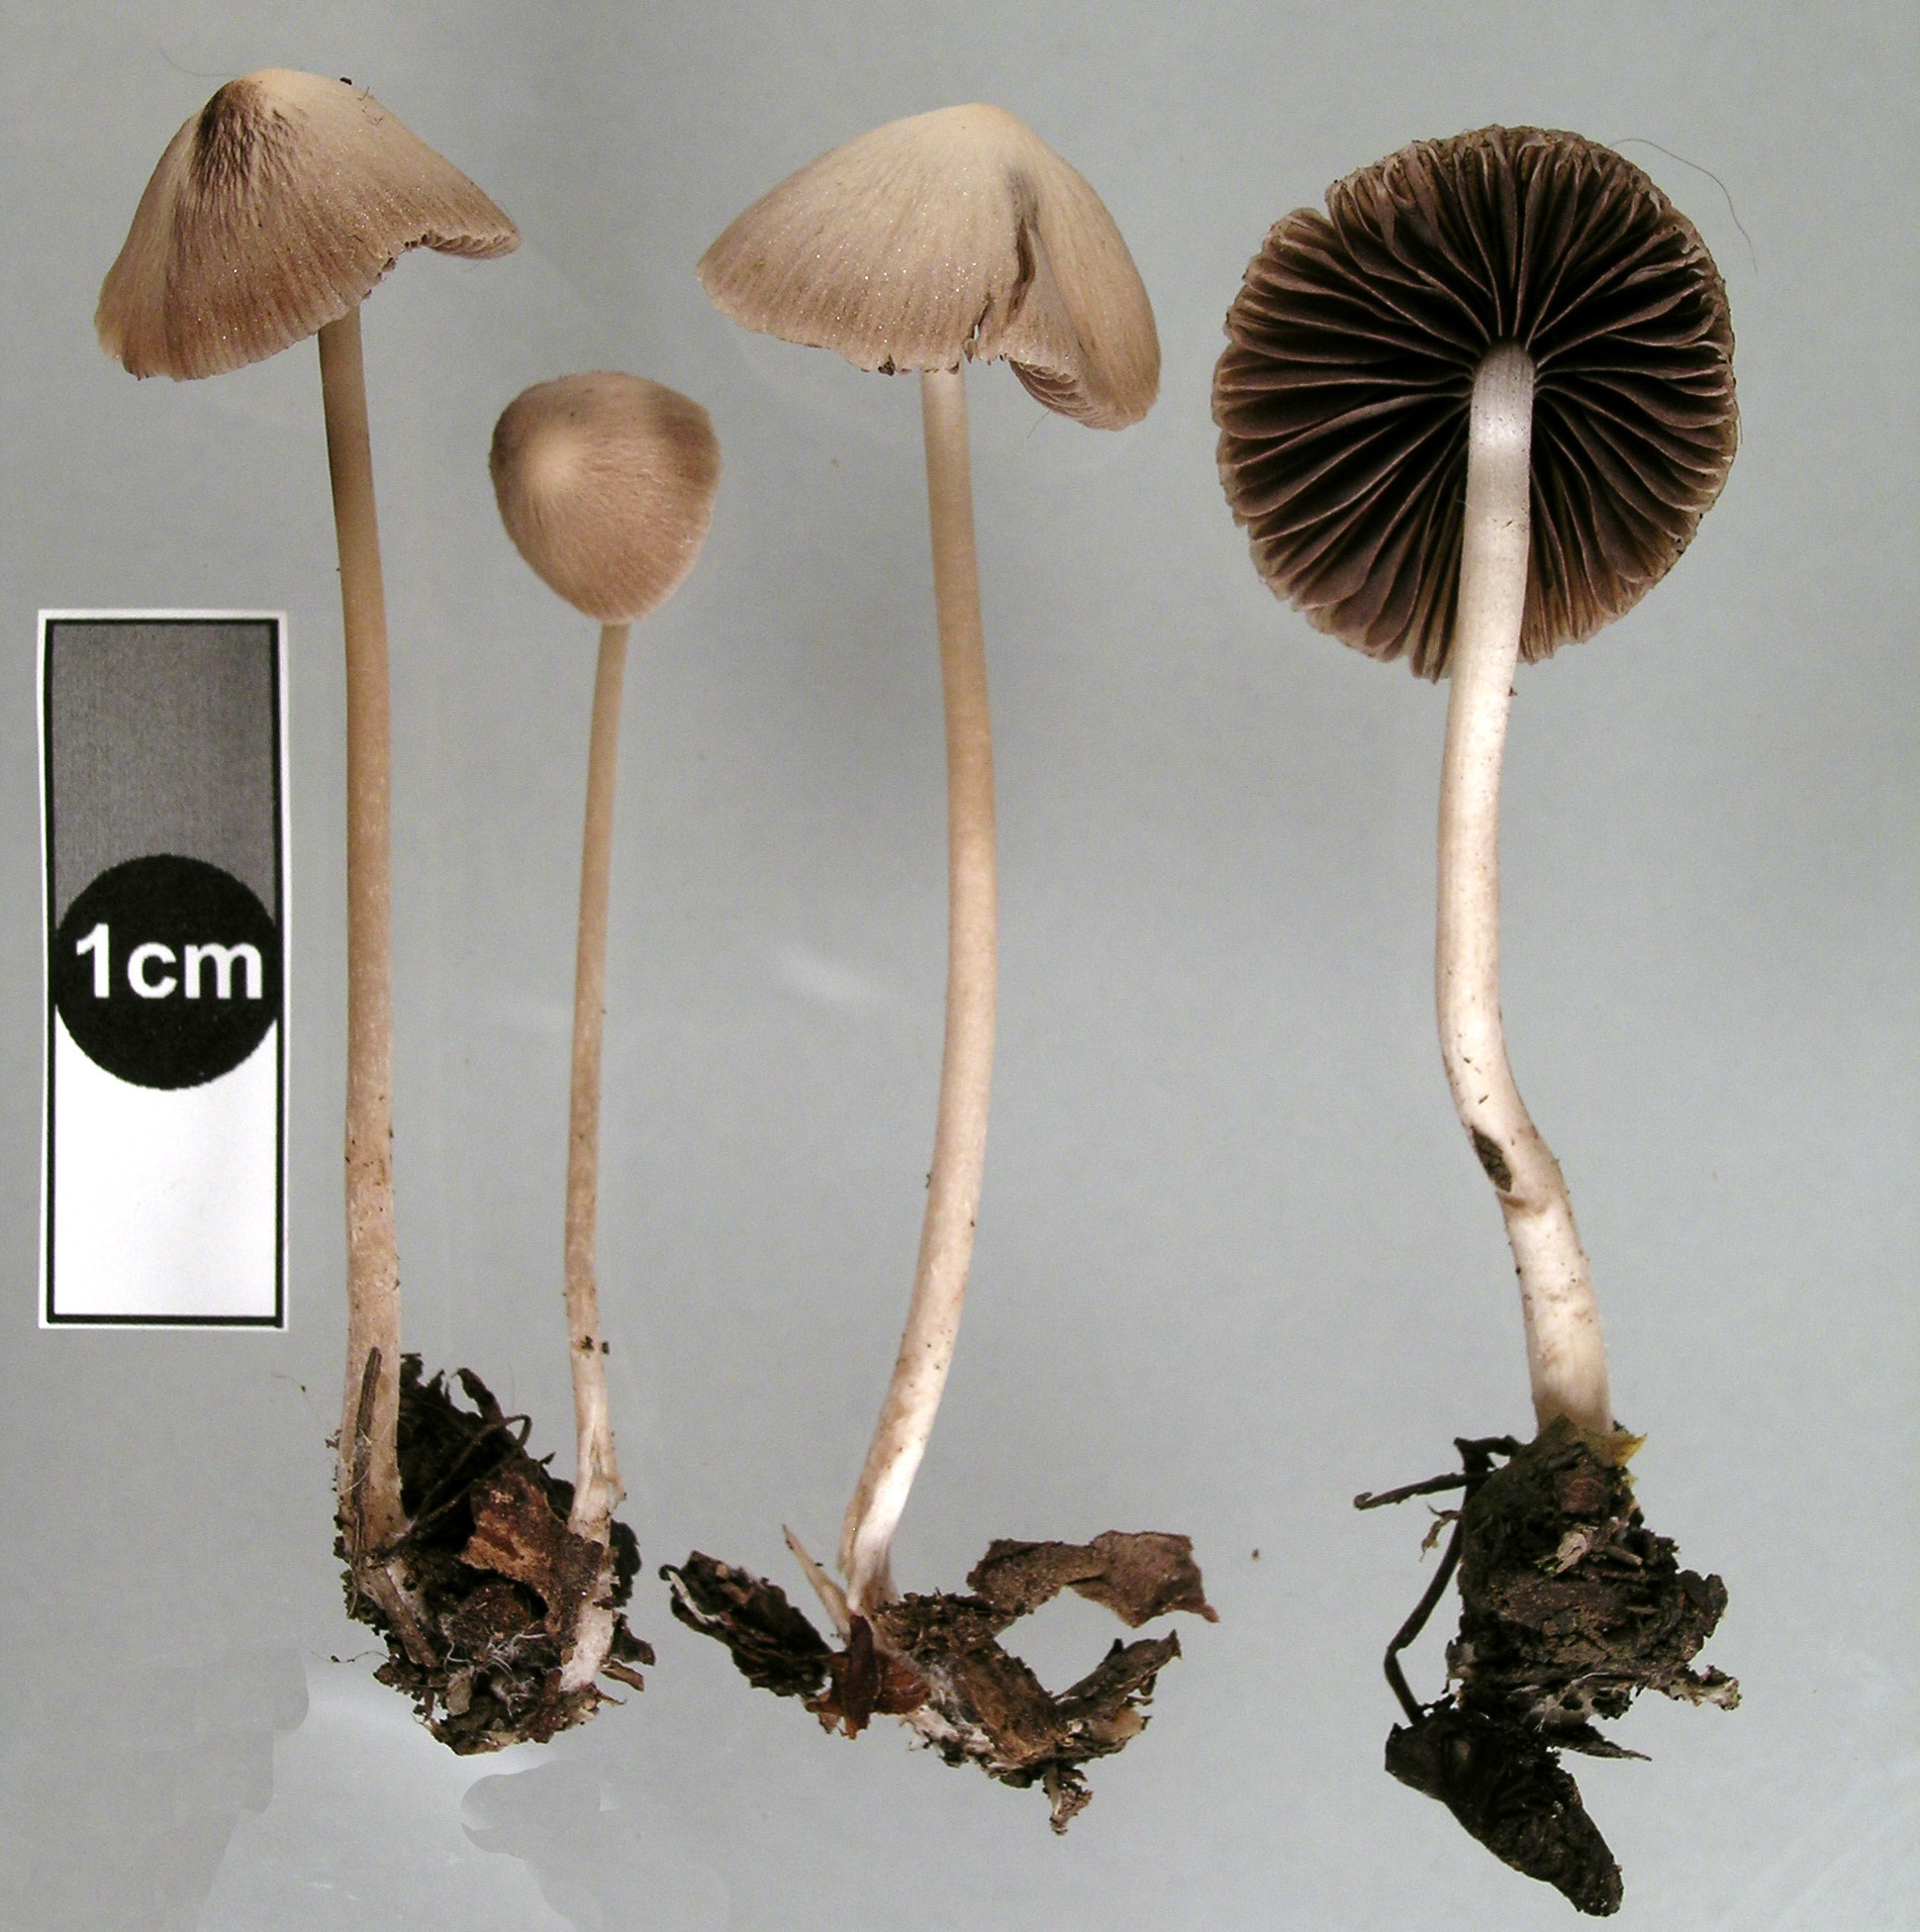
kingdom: Fungi
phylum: Basidiomycota
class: Agaricomycetes
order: Agaricales
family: Psathyrellaceae
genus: Psathyrella
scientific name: Psathyrella microrhiza
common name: Rootlet brittlestem
